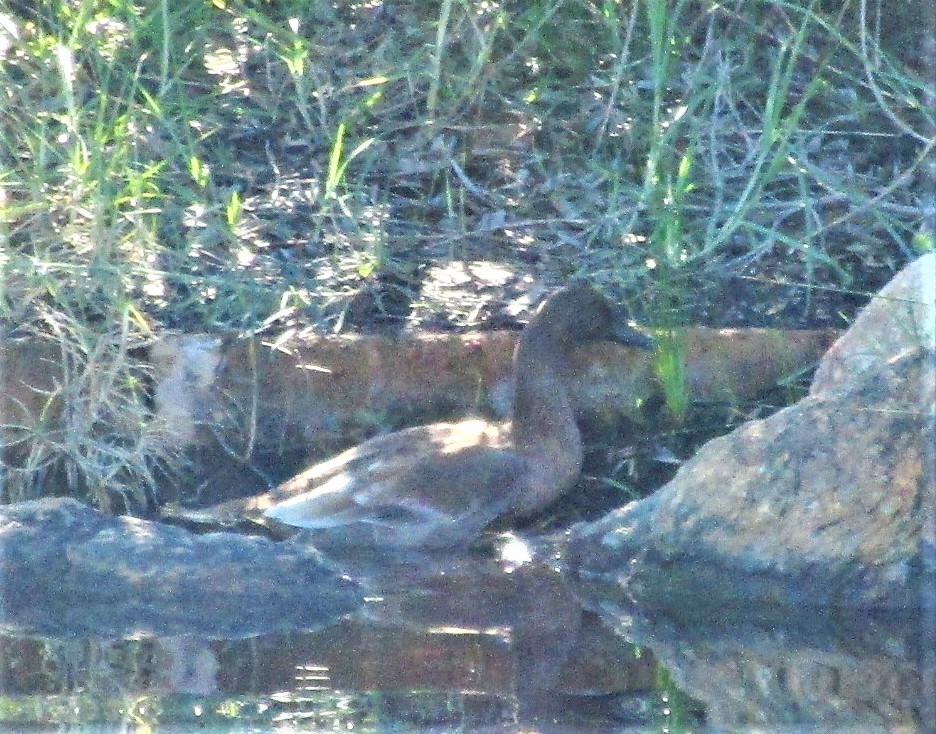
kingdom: Animalia
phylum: Chordata
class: Aves
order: Anseriformes
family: Anatidae
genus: Anas
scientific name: Anas
